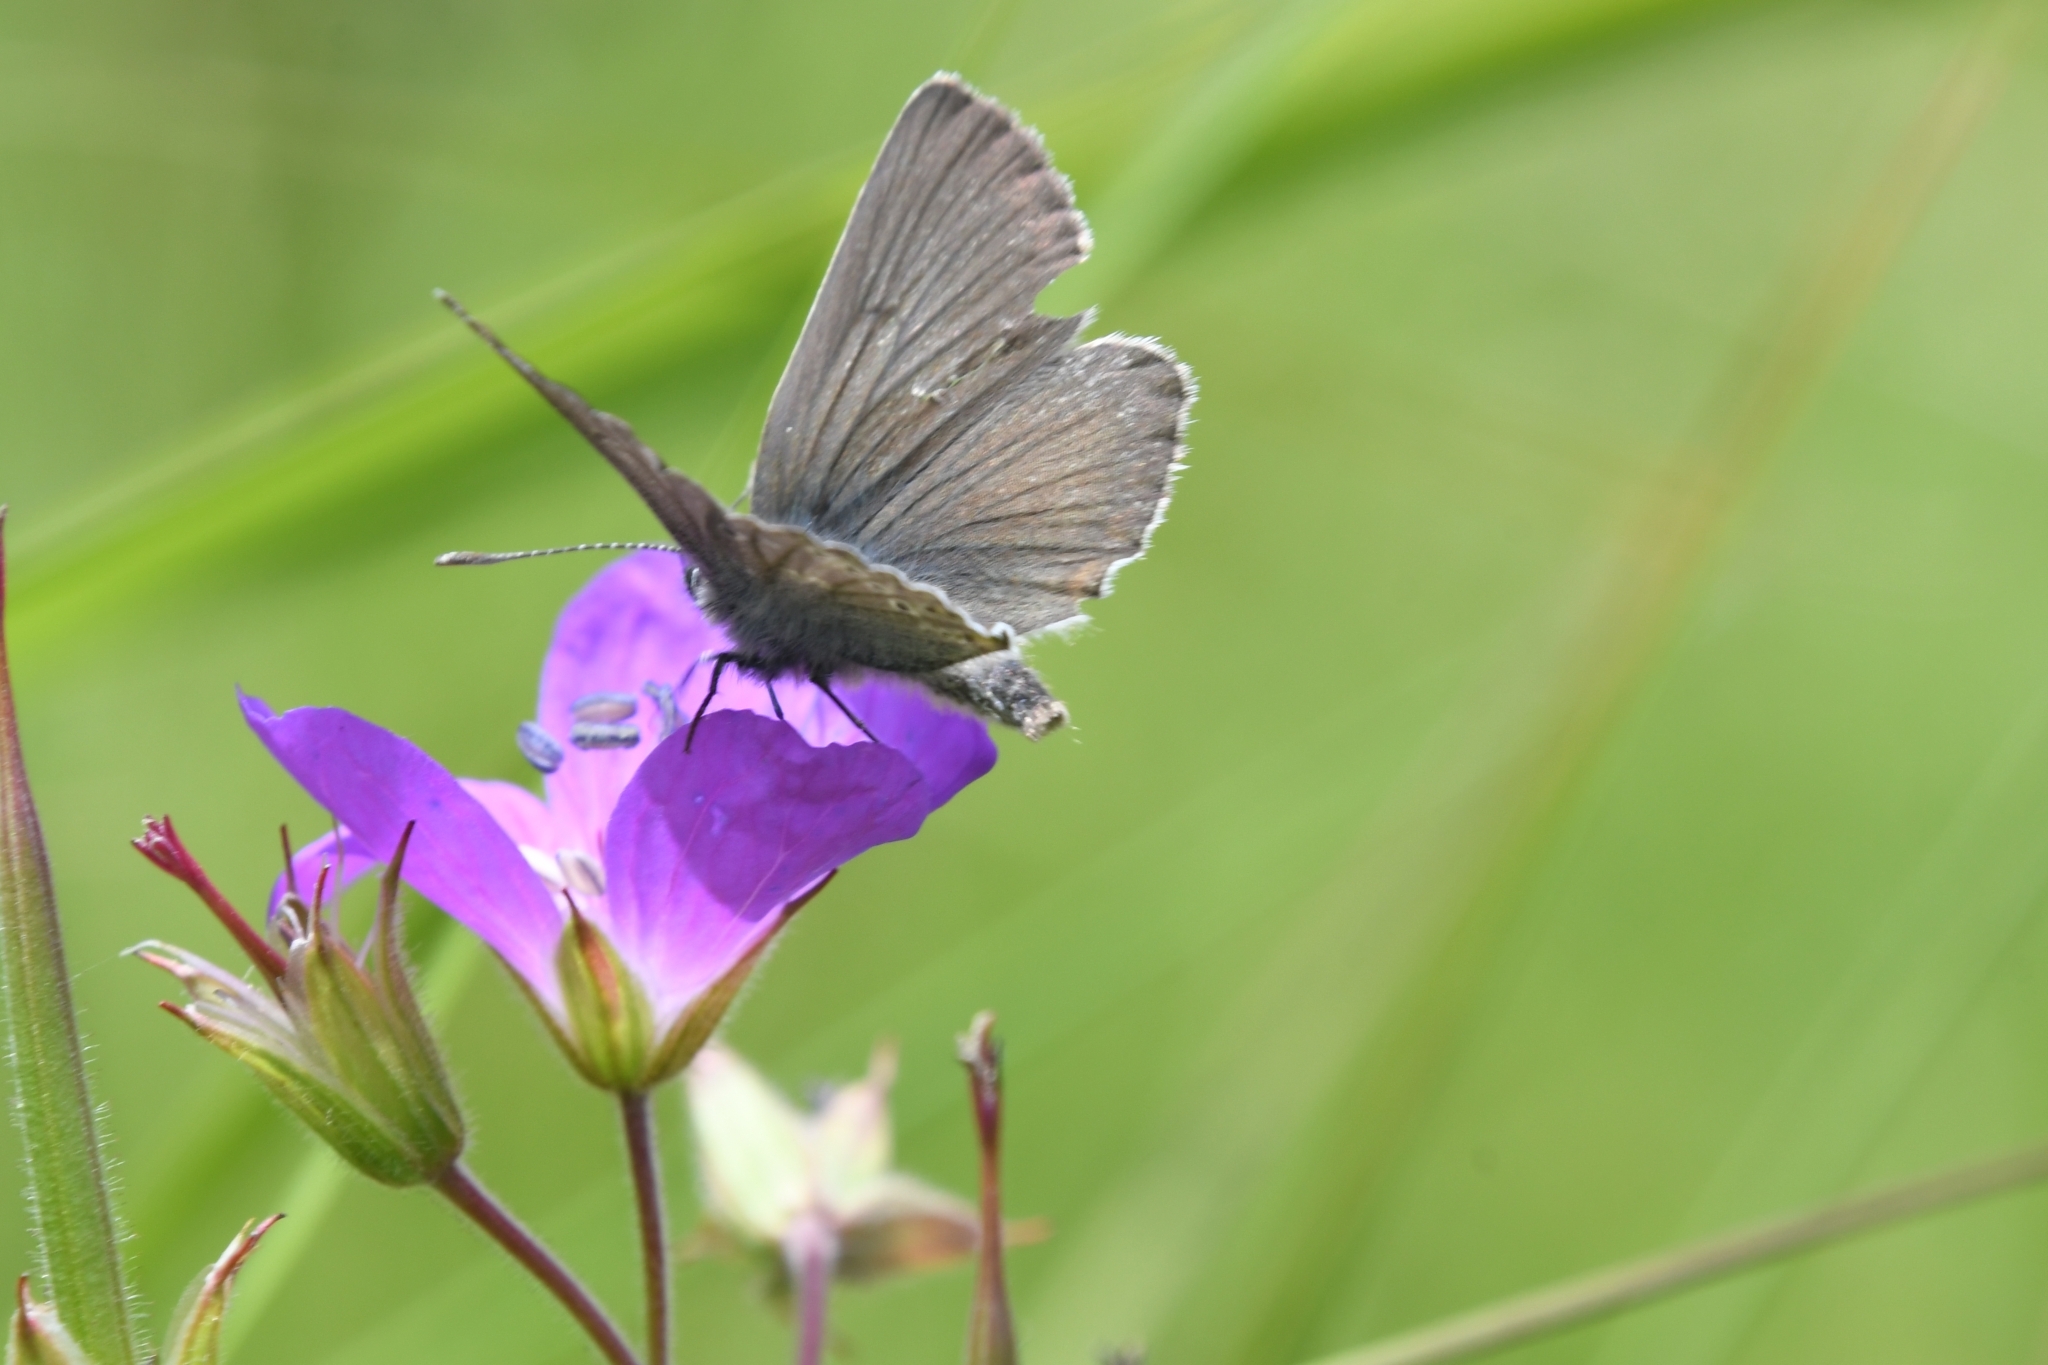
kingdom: Animalia
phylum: Arthropoda
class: Insecta
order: Lepidoptera
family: Lycaenidae
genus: Eumedonia
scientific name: Eumedonia eumedon
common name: Geranium argus
